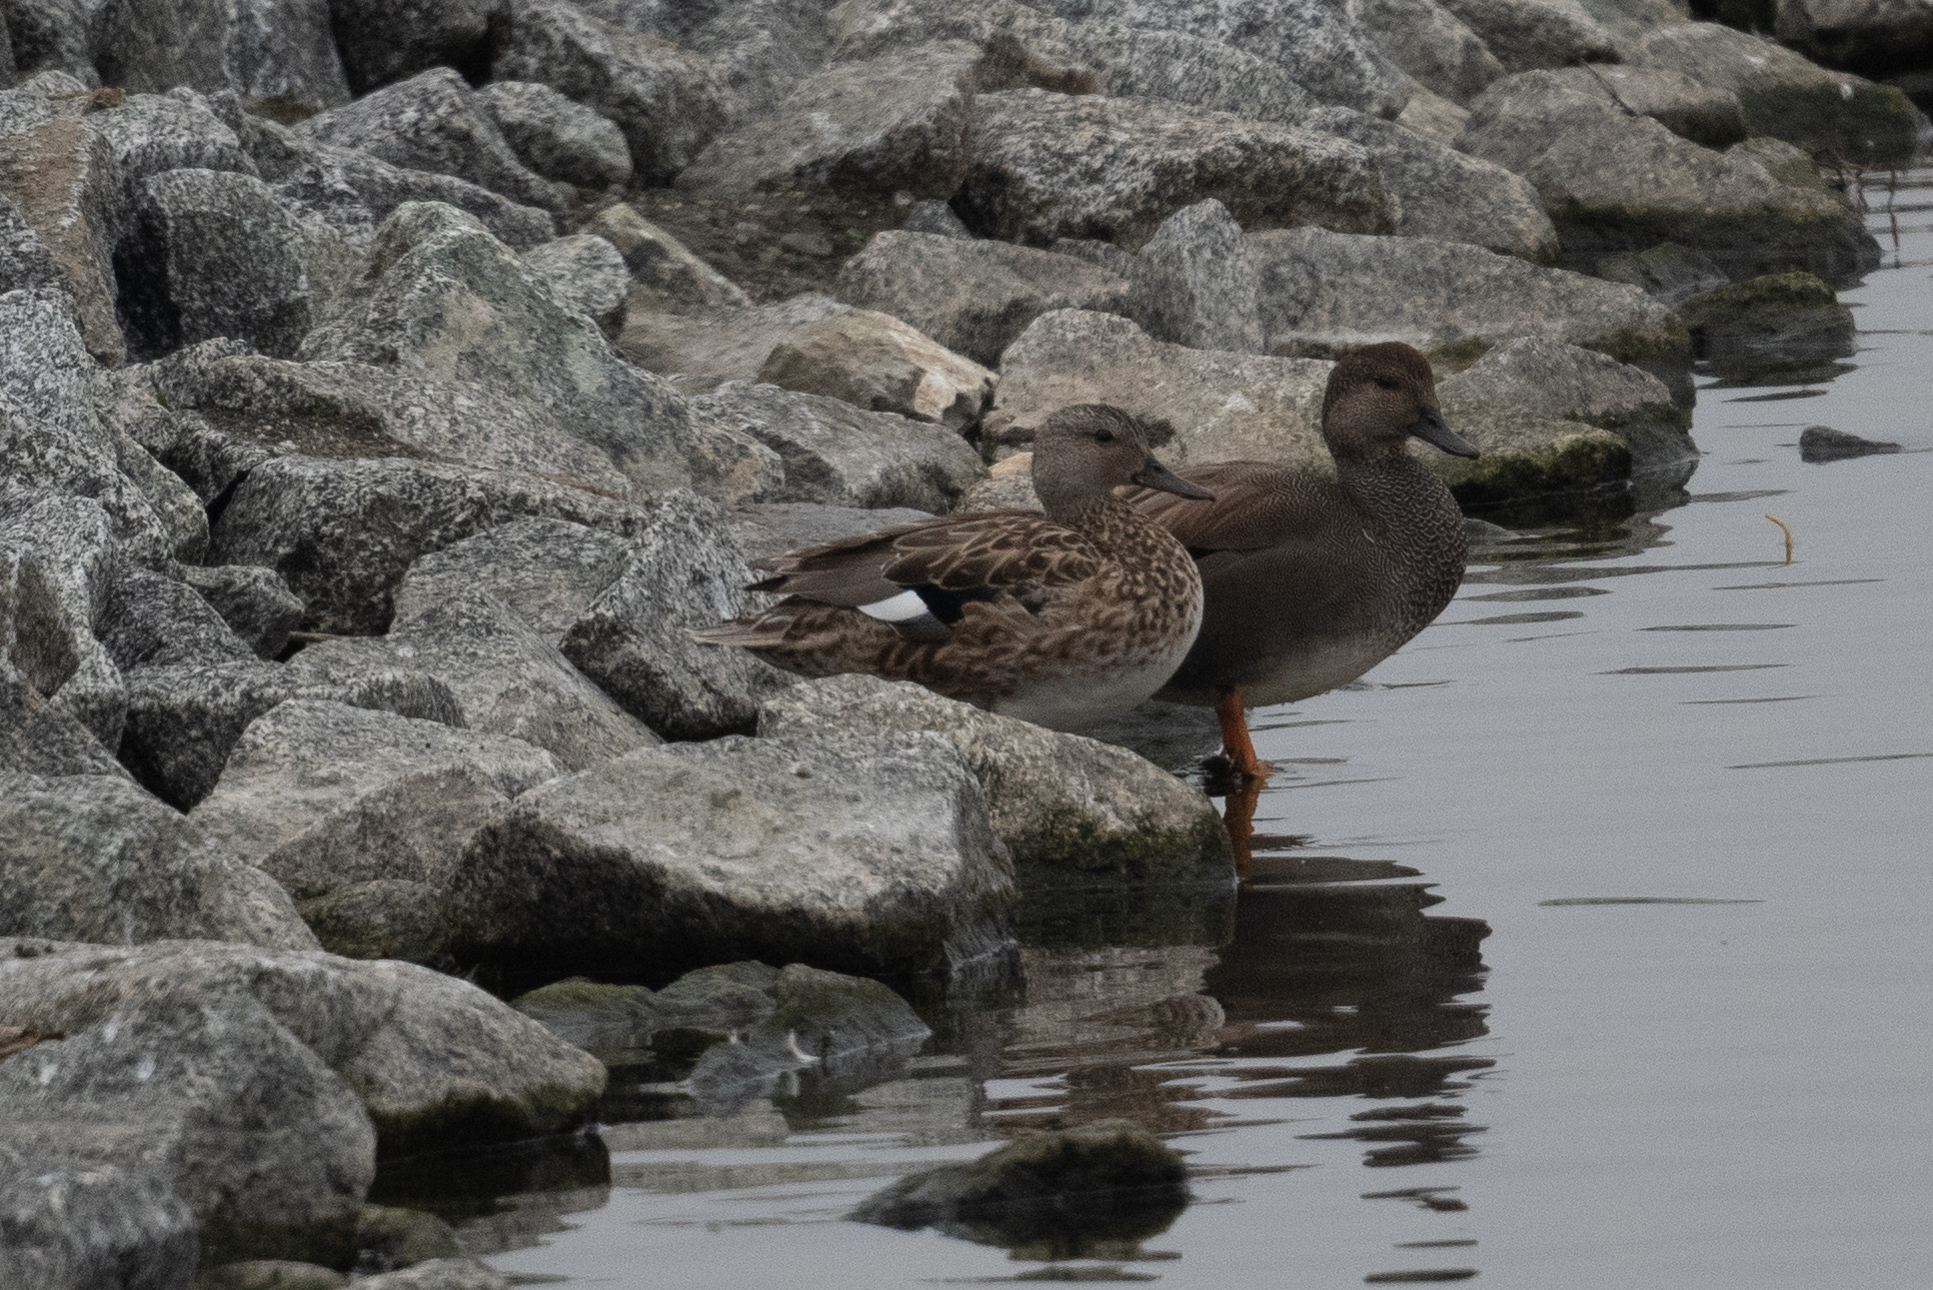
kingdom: Animalia
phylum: Chordata
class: Aves
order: Anseriformes
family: Anatidae
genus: Mareca
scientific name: Mareca strepera
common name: Gadwall
